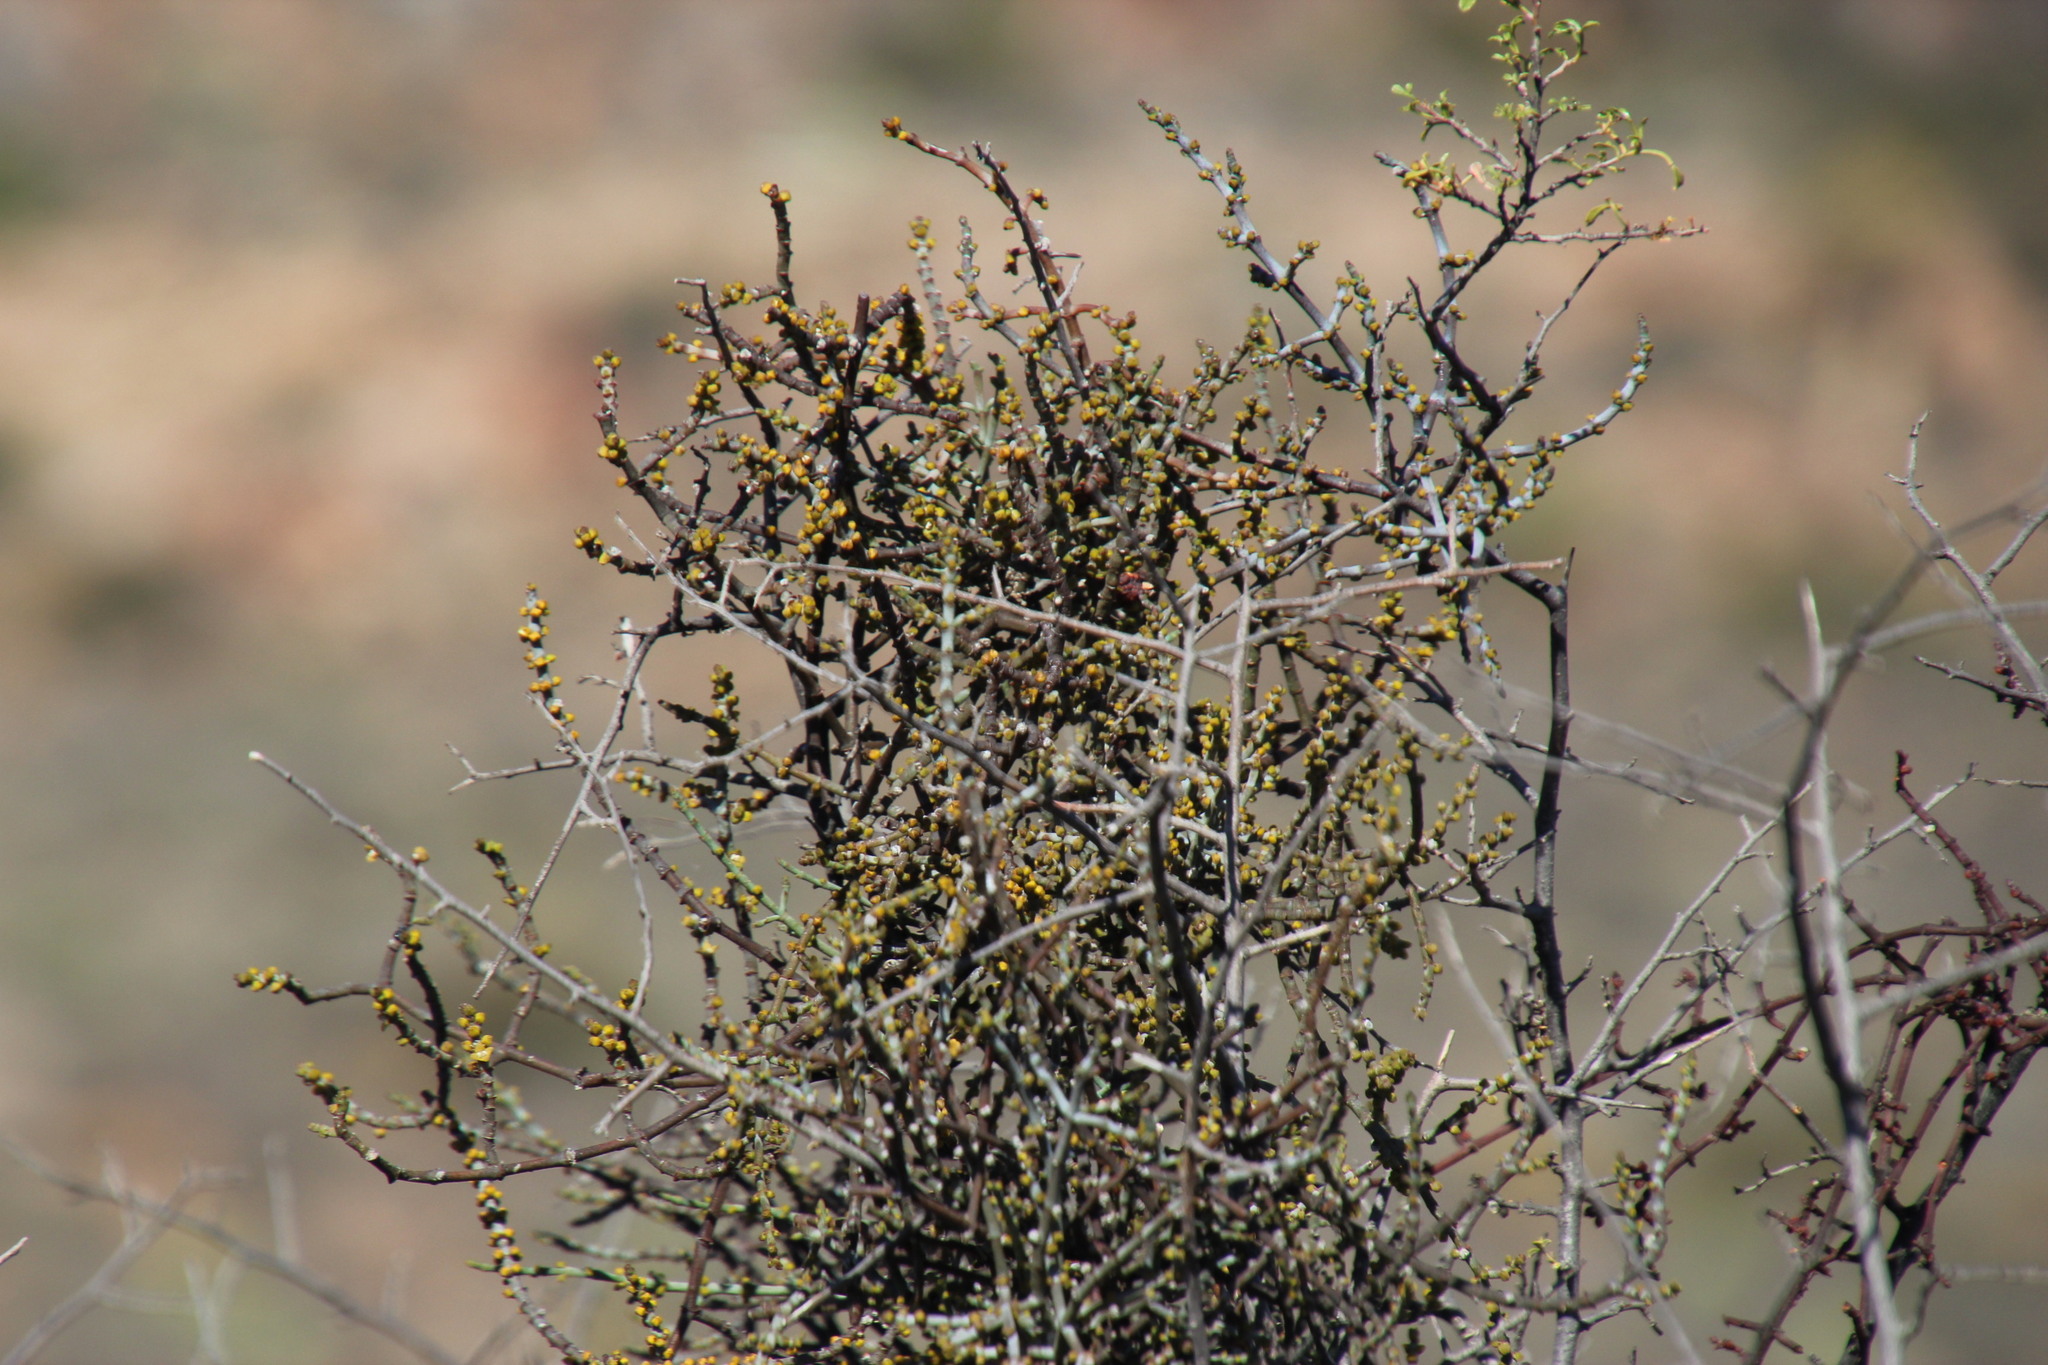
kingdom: Plantae
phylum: Tracheophyta
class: Magnoliopsida
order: Sapindales
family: Anacardiaceae
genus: Searsia
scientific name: Searsia undulata
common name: Namaqua kunibush
